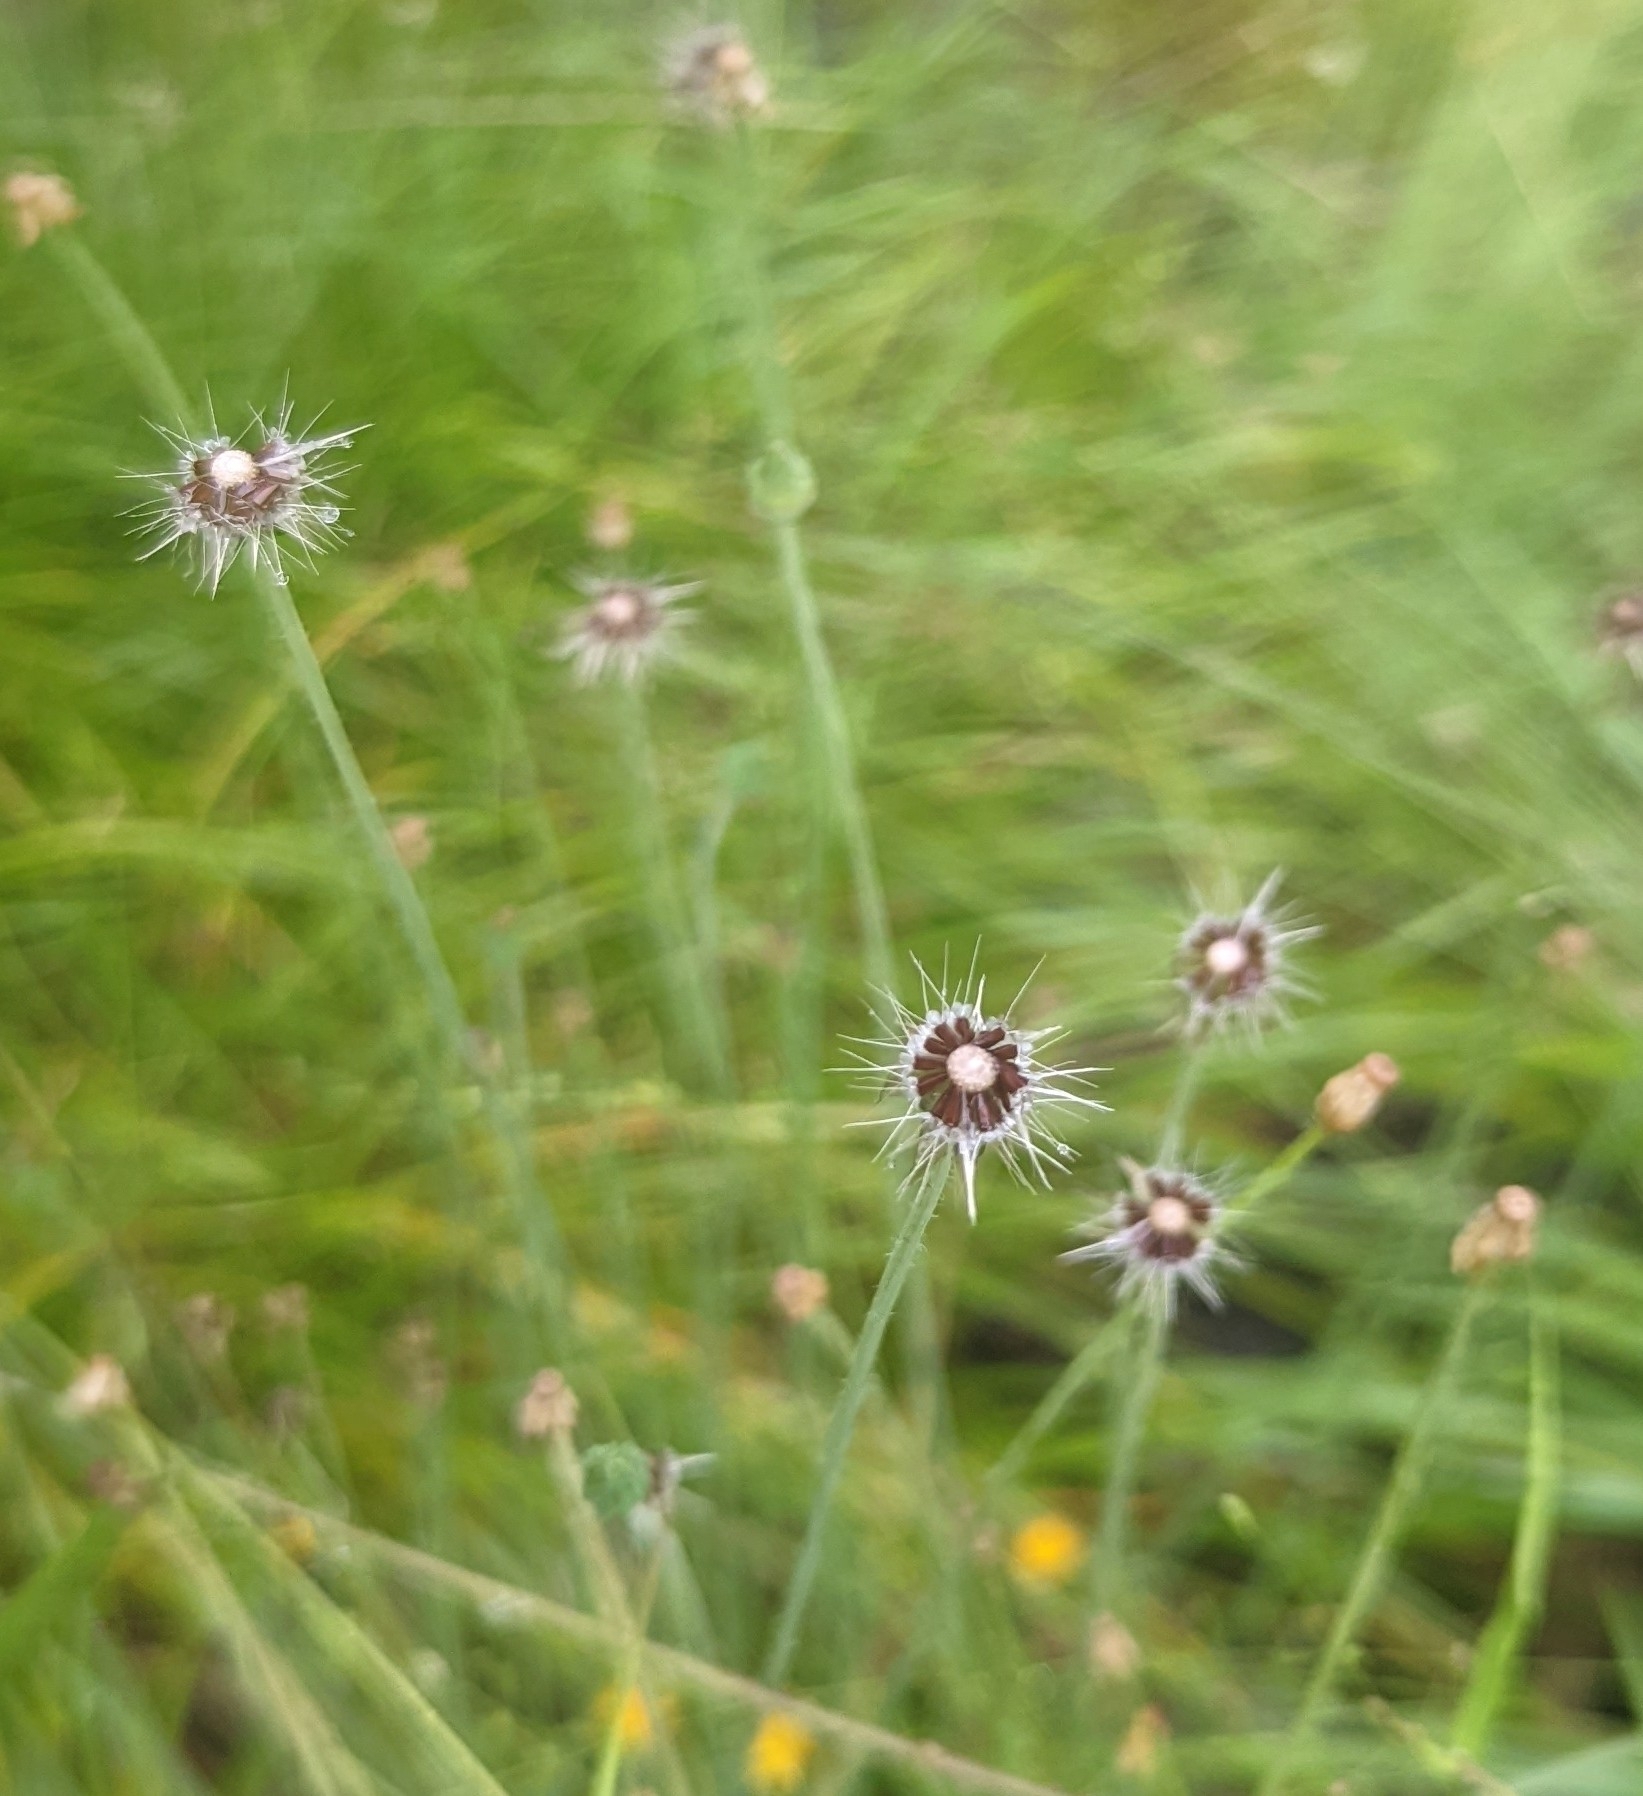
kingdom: Plantae
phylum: Tracheophyta
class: Magnoliopsida
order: Asterales
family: Asteraceae
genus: Krigia
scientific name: Krigia virginica
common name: Virginia dwarf-dandelion
